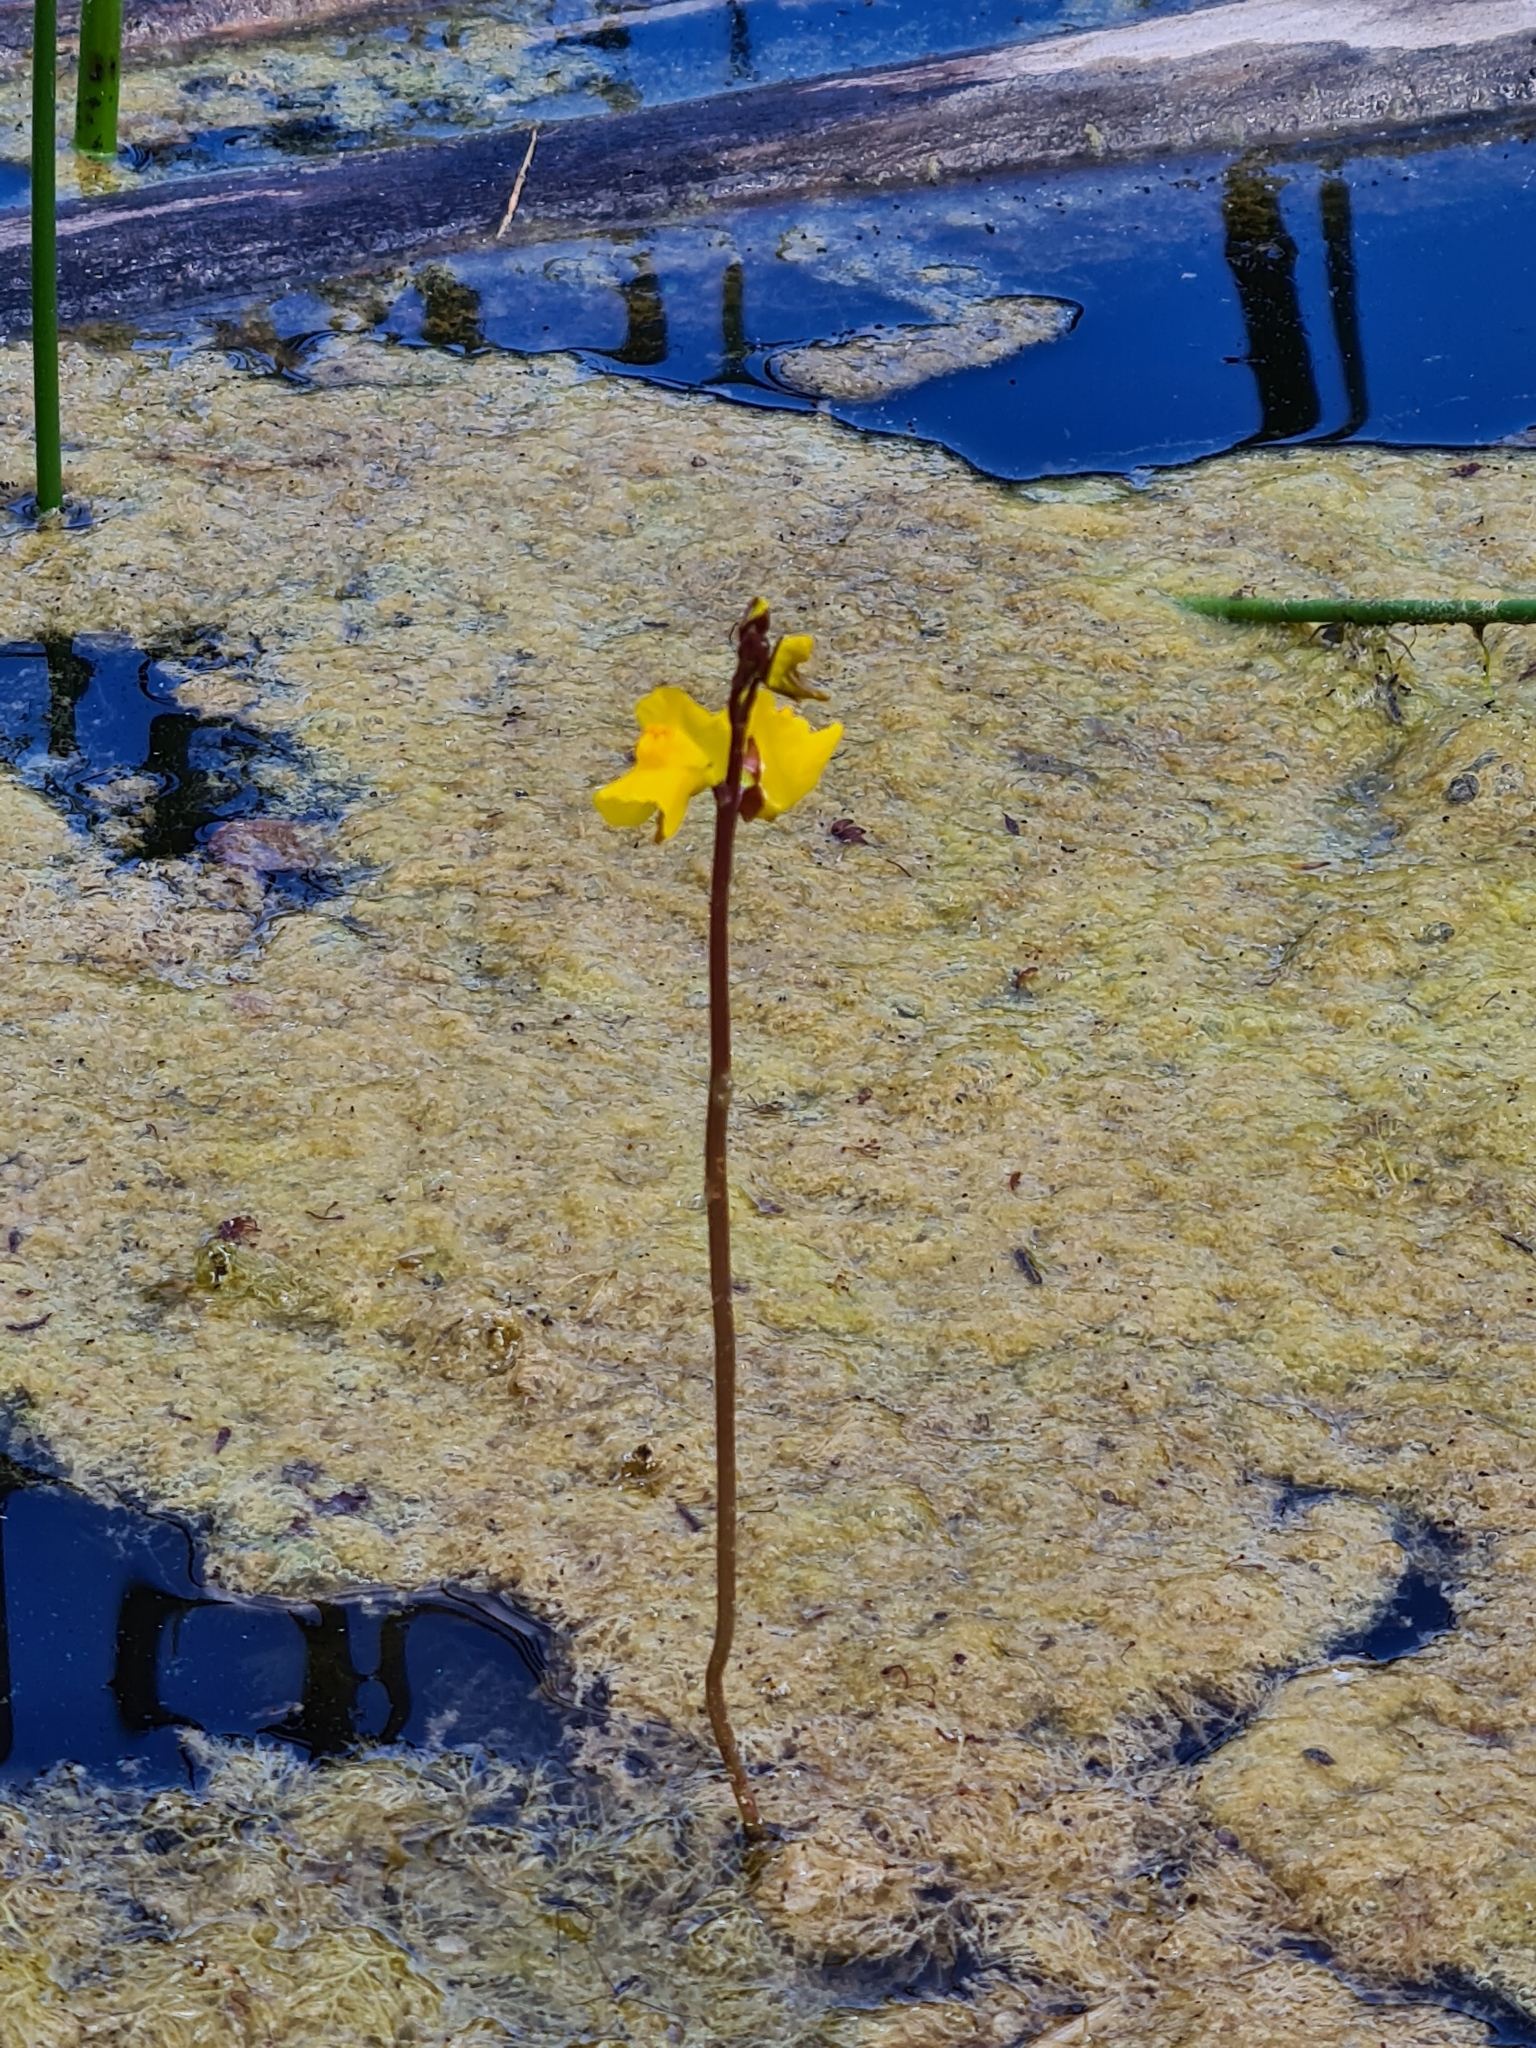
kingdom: Plantae
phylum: Tracheophyta
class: Magnoliopsida
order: Lamiales
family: Lentibulariaceae
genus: Utricularia
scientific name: Utricularia vulgaris
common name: Greater bladderwort
